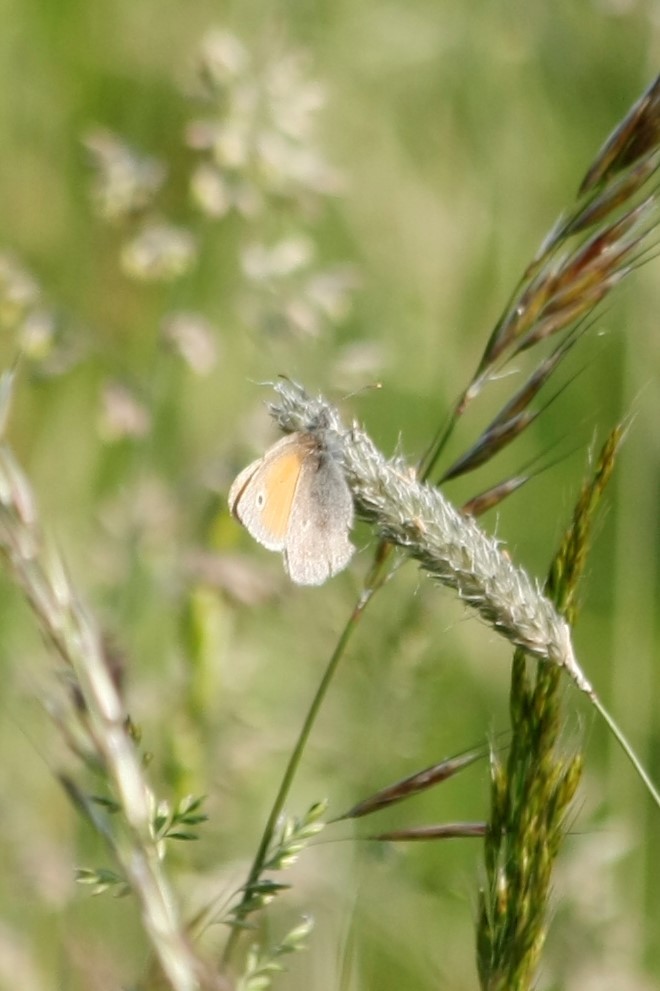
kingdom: Animalia
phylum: Arthropoda
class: Insecta
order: Lepidoptera
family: Nymphalidae
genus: Coenonympha
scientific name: Coenonympha pamphilus
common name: Small heath
